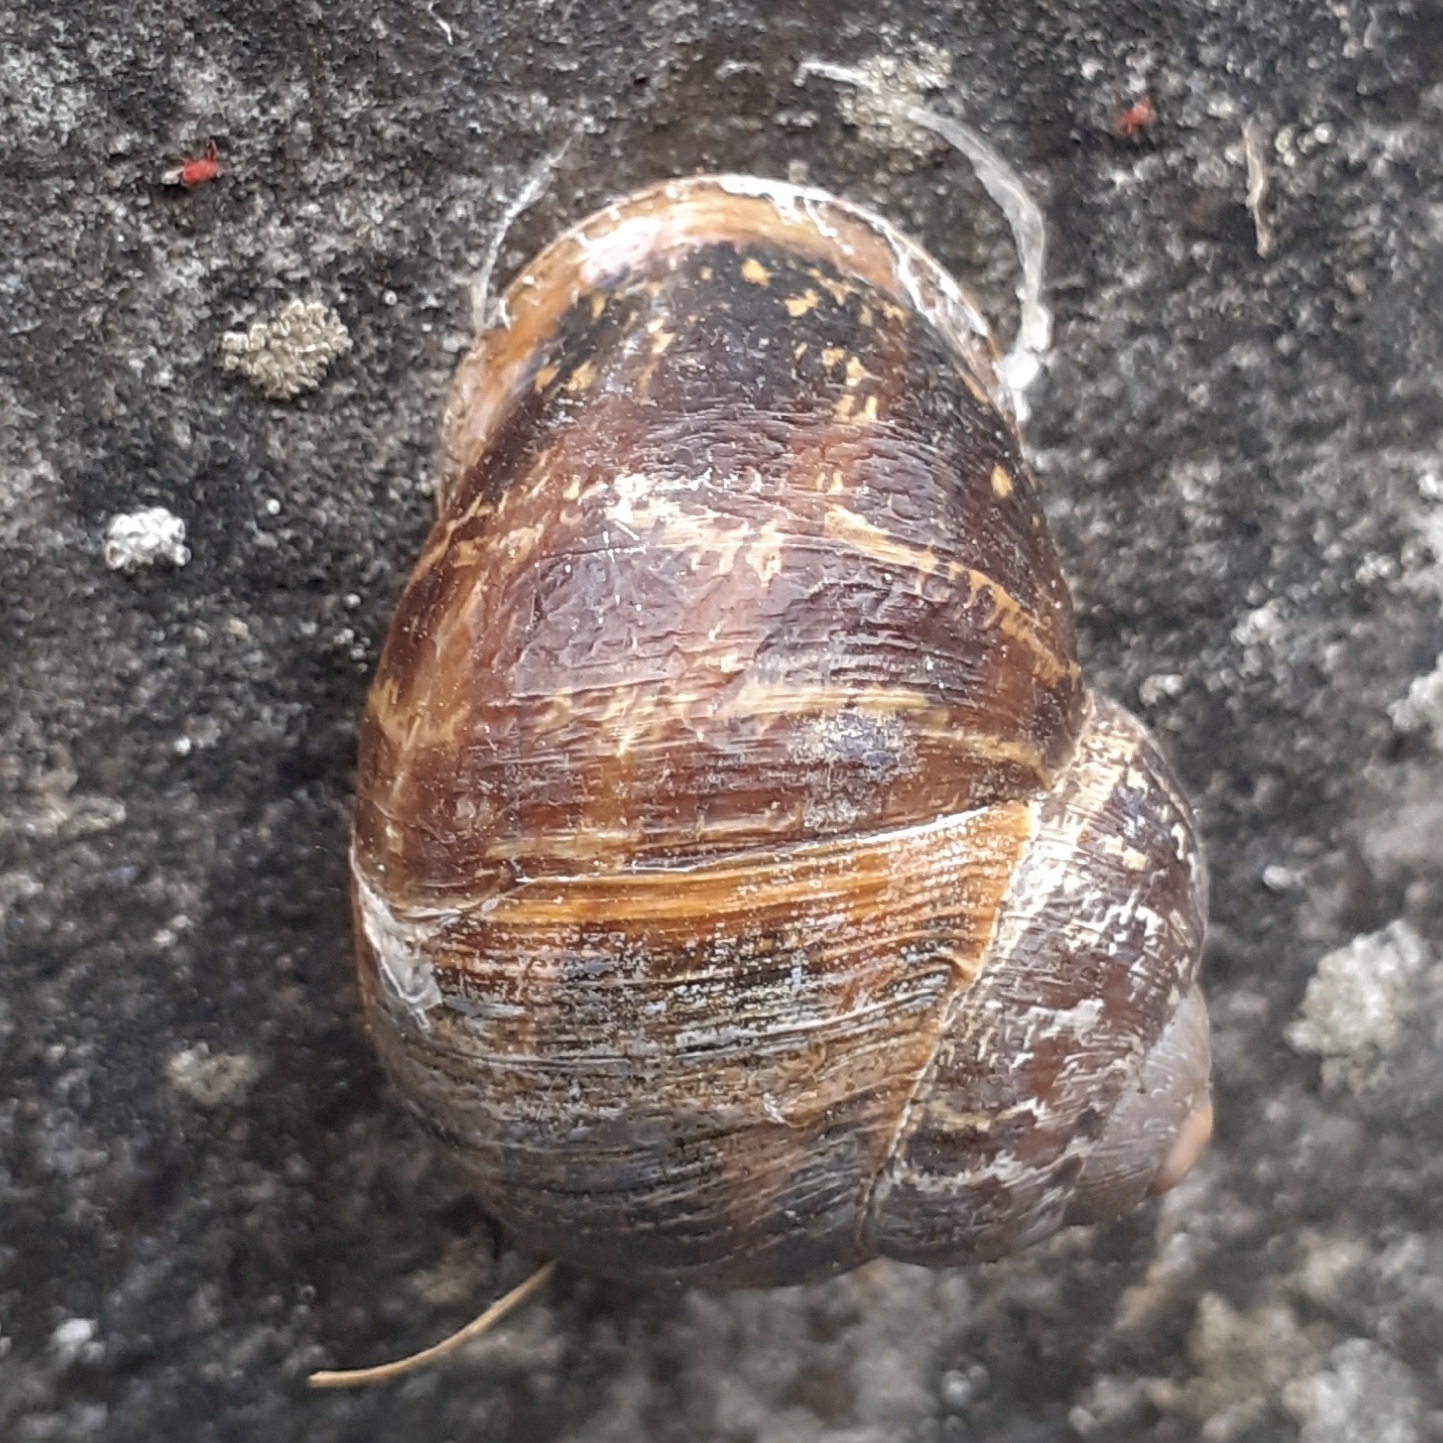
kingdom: Animalia
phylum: Mollusca
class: Gastropoda
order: Stylommatophora
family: Helicidae
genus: Cornu
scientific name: Cornu aspersum
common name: Brown garden snail
